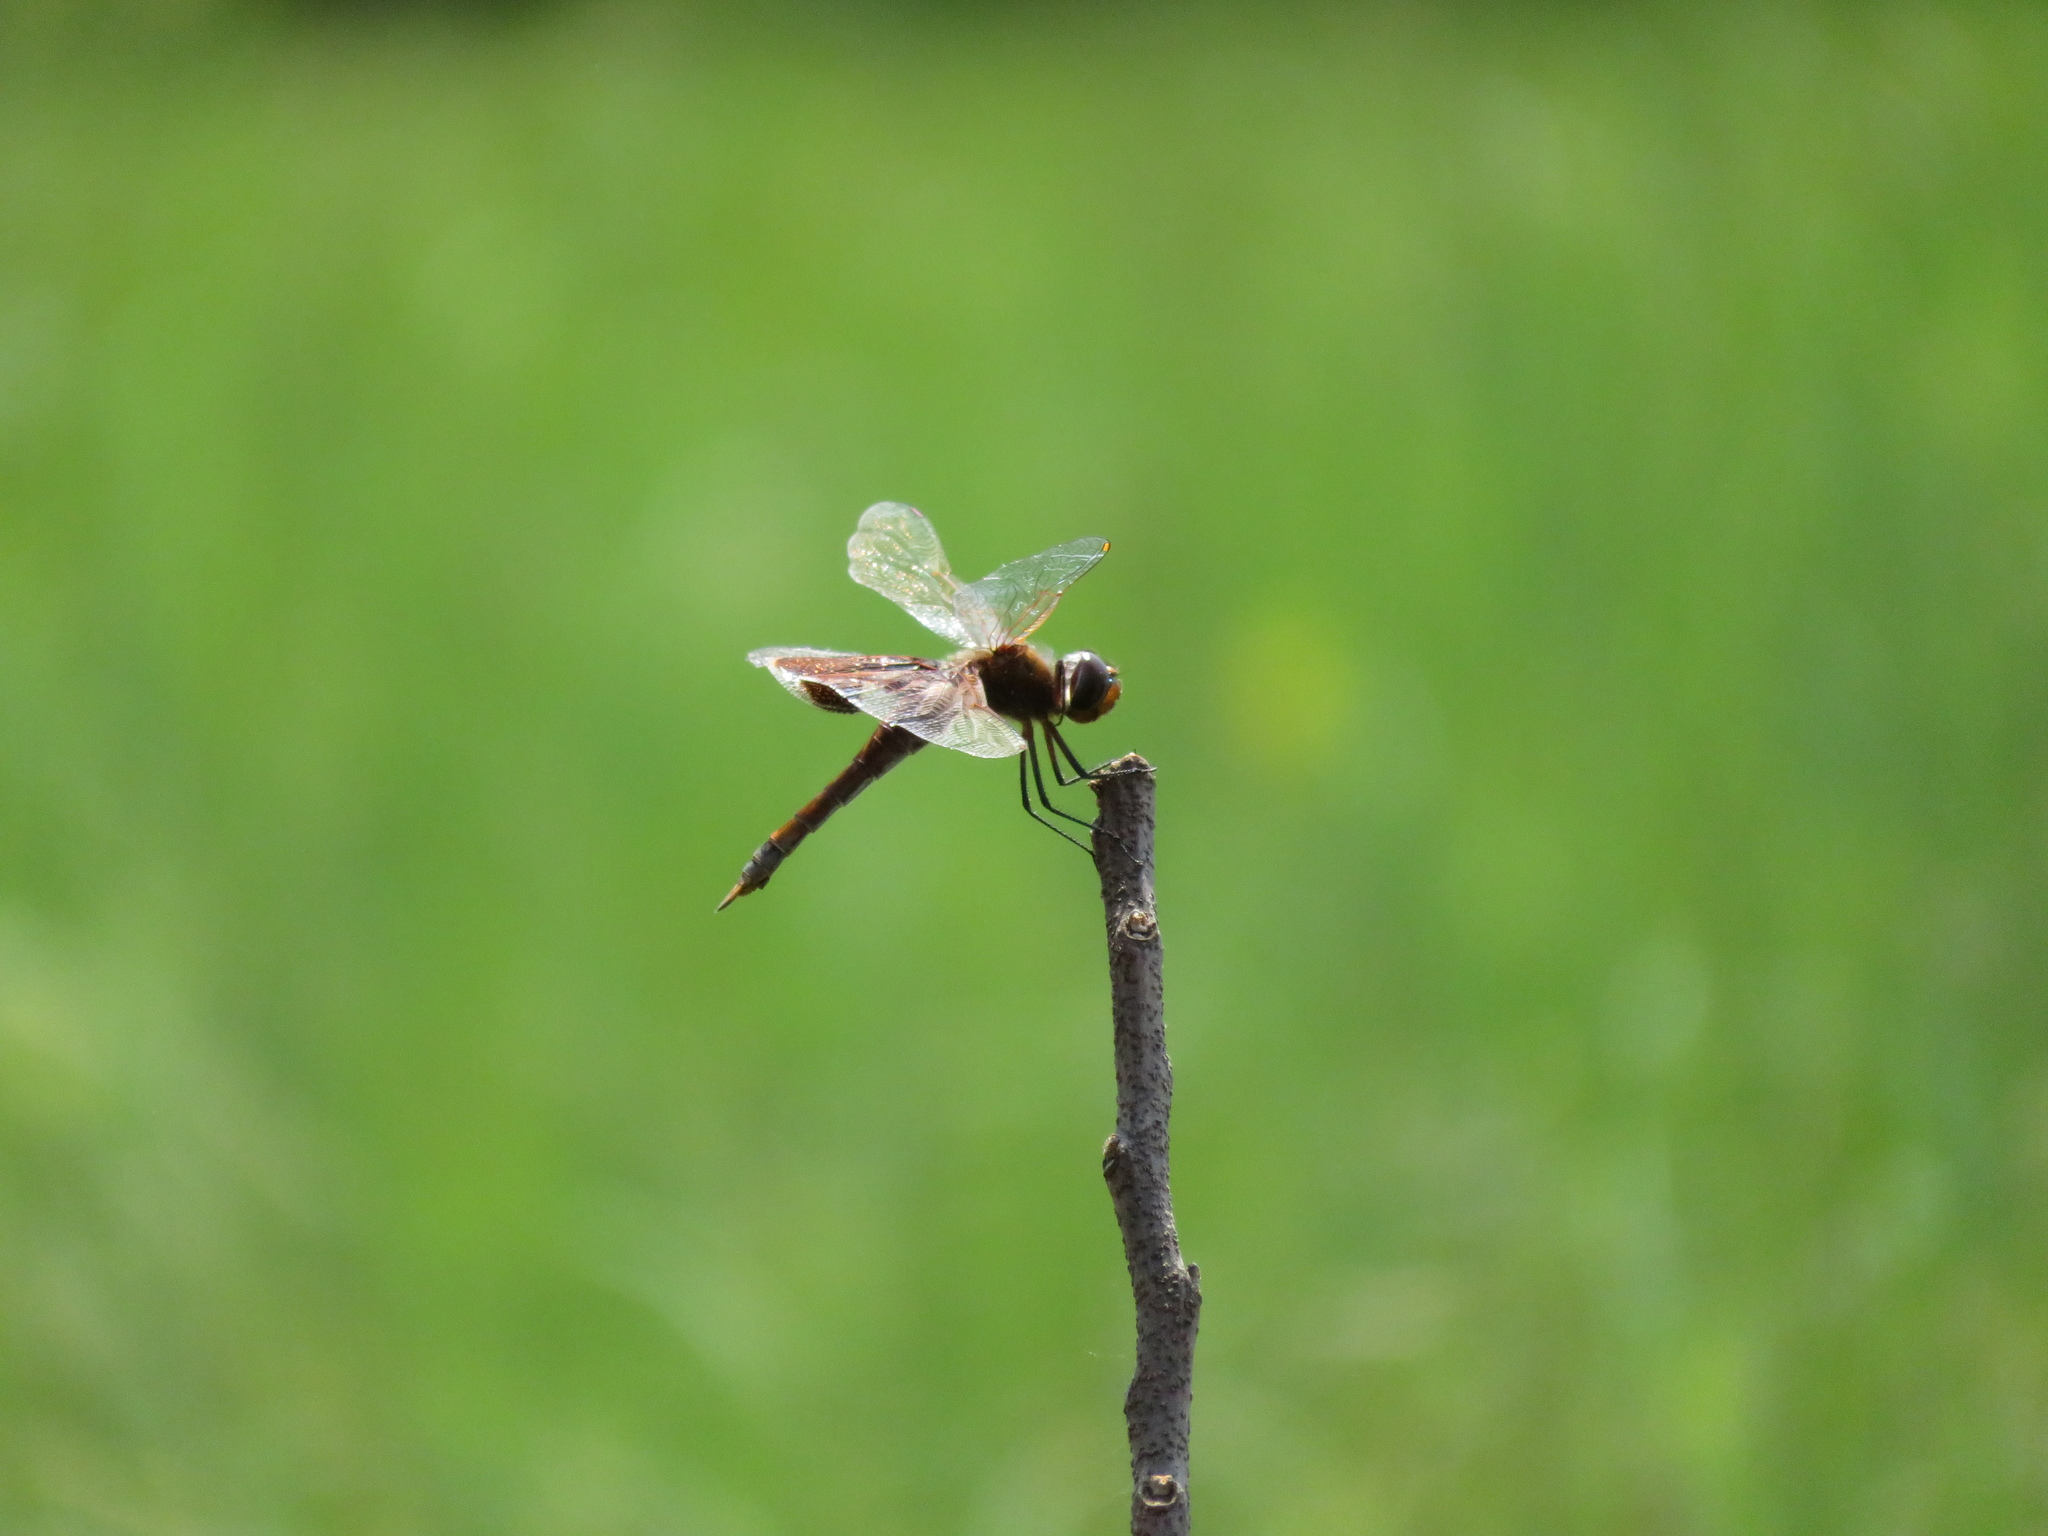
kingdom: Animalia
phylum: Arthropoda
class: Insecta
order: Odonata
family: Libellulidae
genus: Tramea
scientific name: Tramea carolina
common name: Carolina saddlebags
